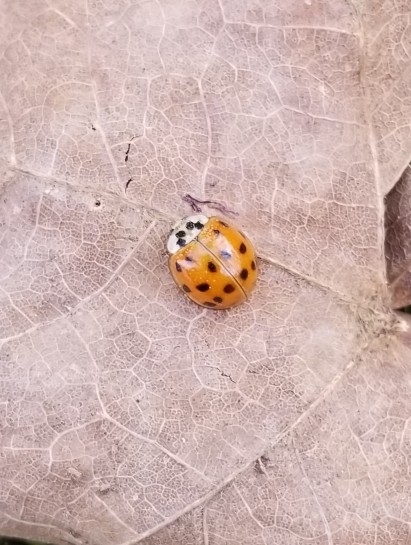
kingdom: Animalia
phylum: Arthropoda
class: Insecta
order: Coleoptera
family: Coccinellidae
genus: Harmonia
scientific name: Harmonia axyridis
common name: Harlequin ladybird
